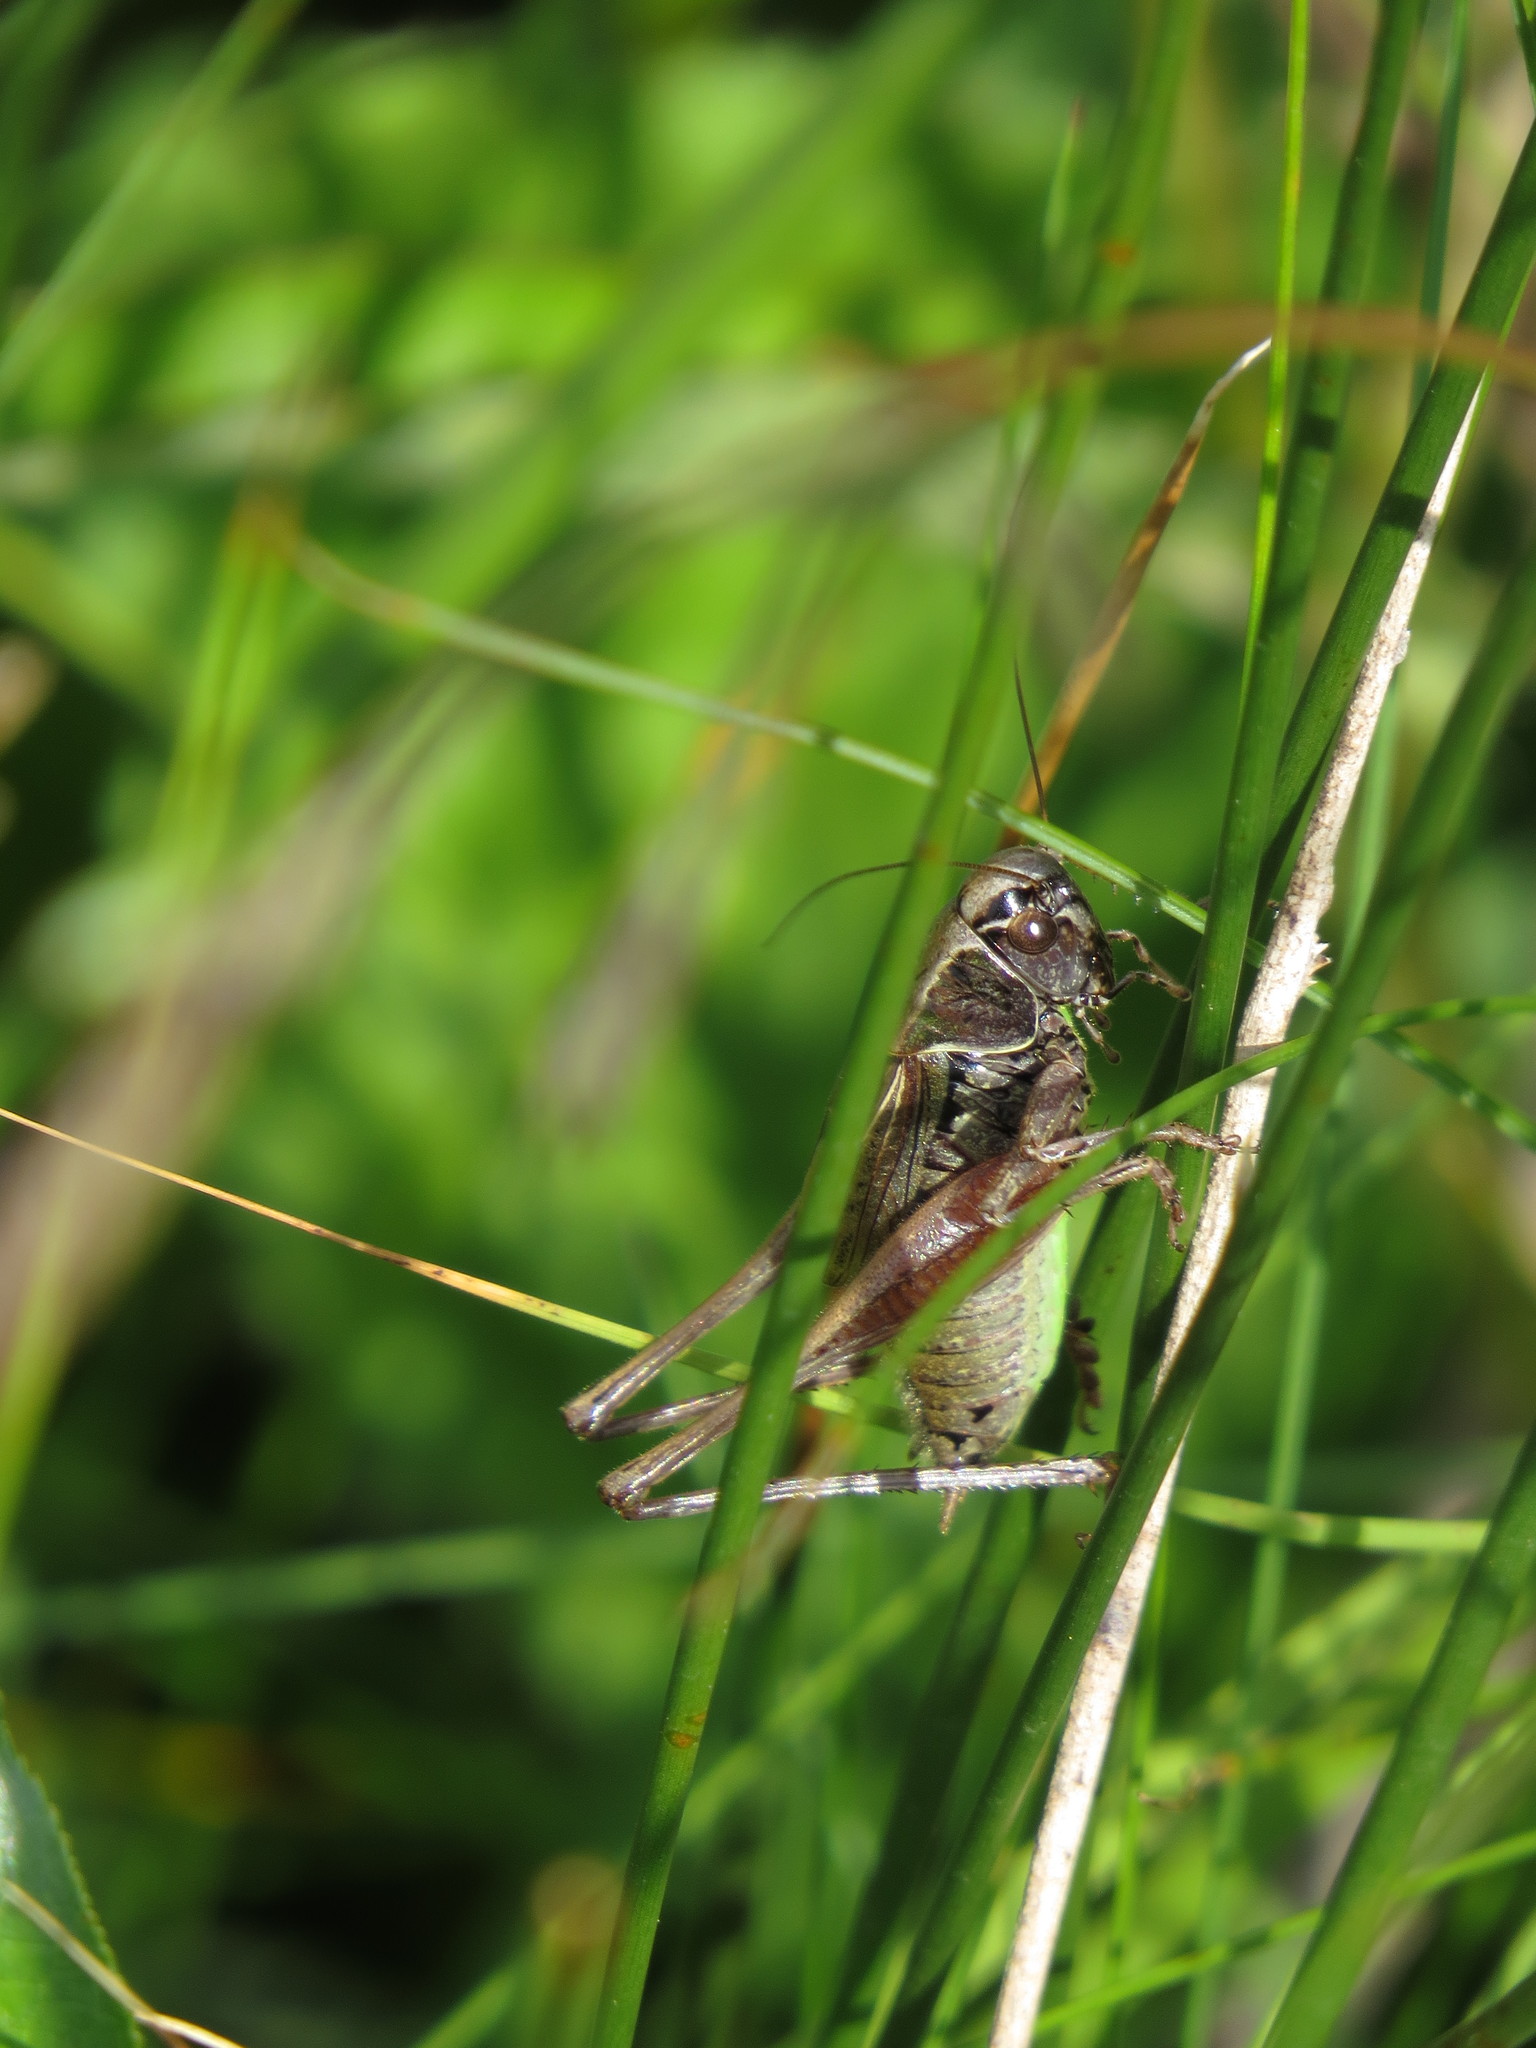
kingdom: Animalia
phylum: Arthropoda
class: Insecta
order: Orthoptera
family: Tettigoniidae
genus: Metrioptera
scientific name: Metrioptera saussuriana
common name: Purple meadow bush-cricket
